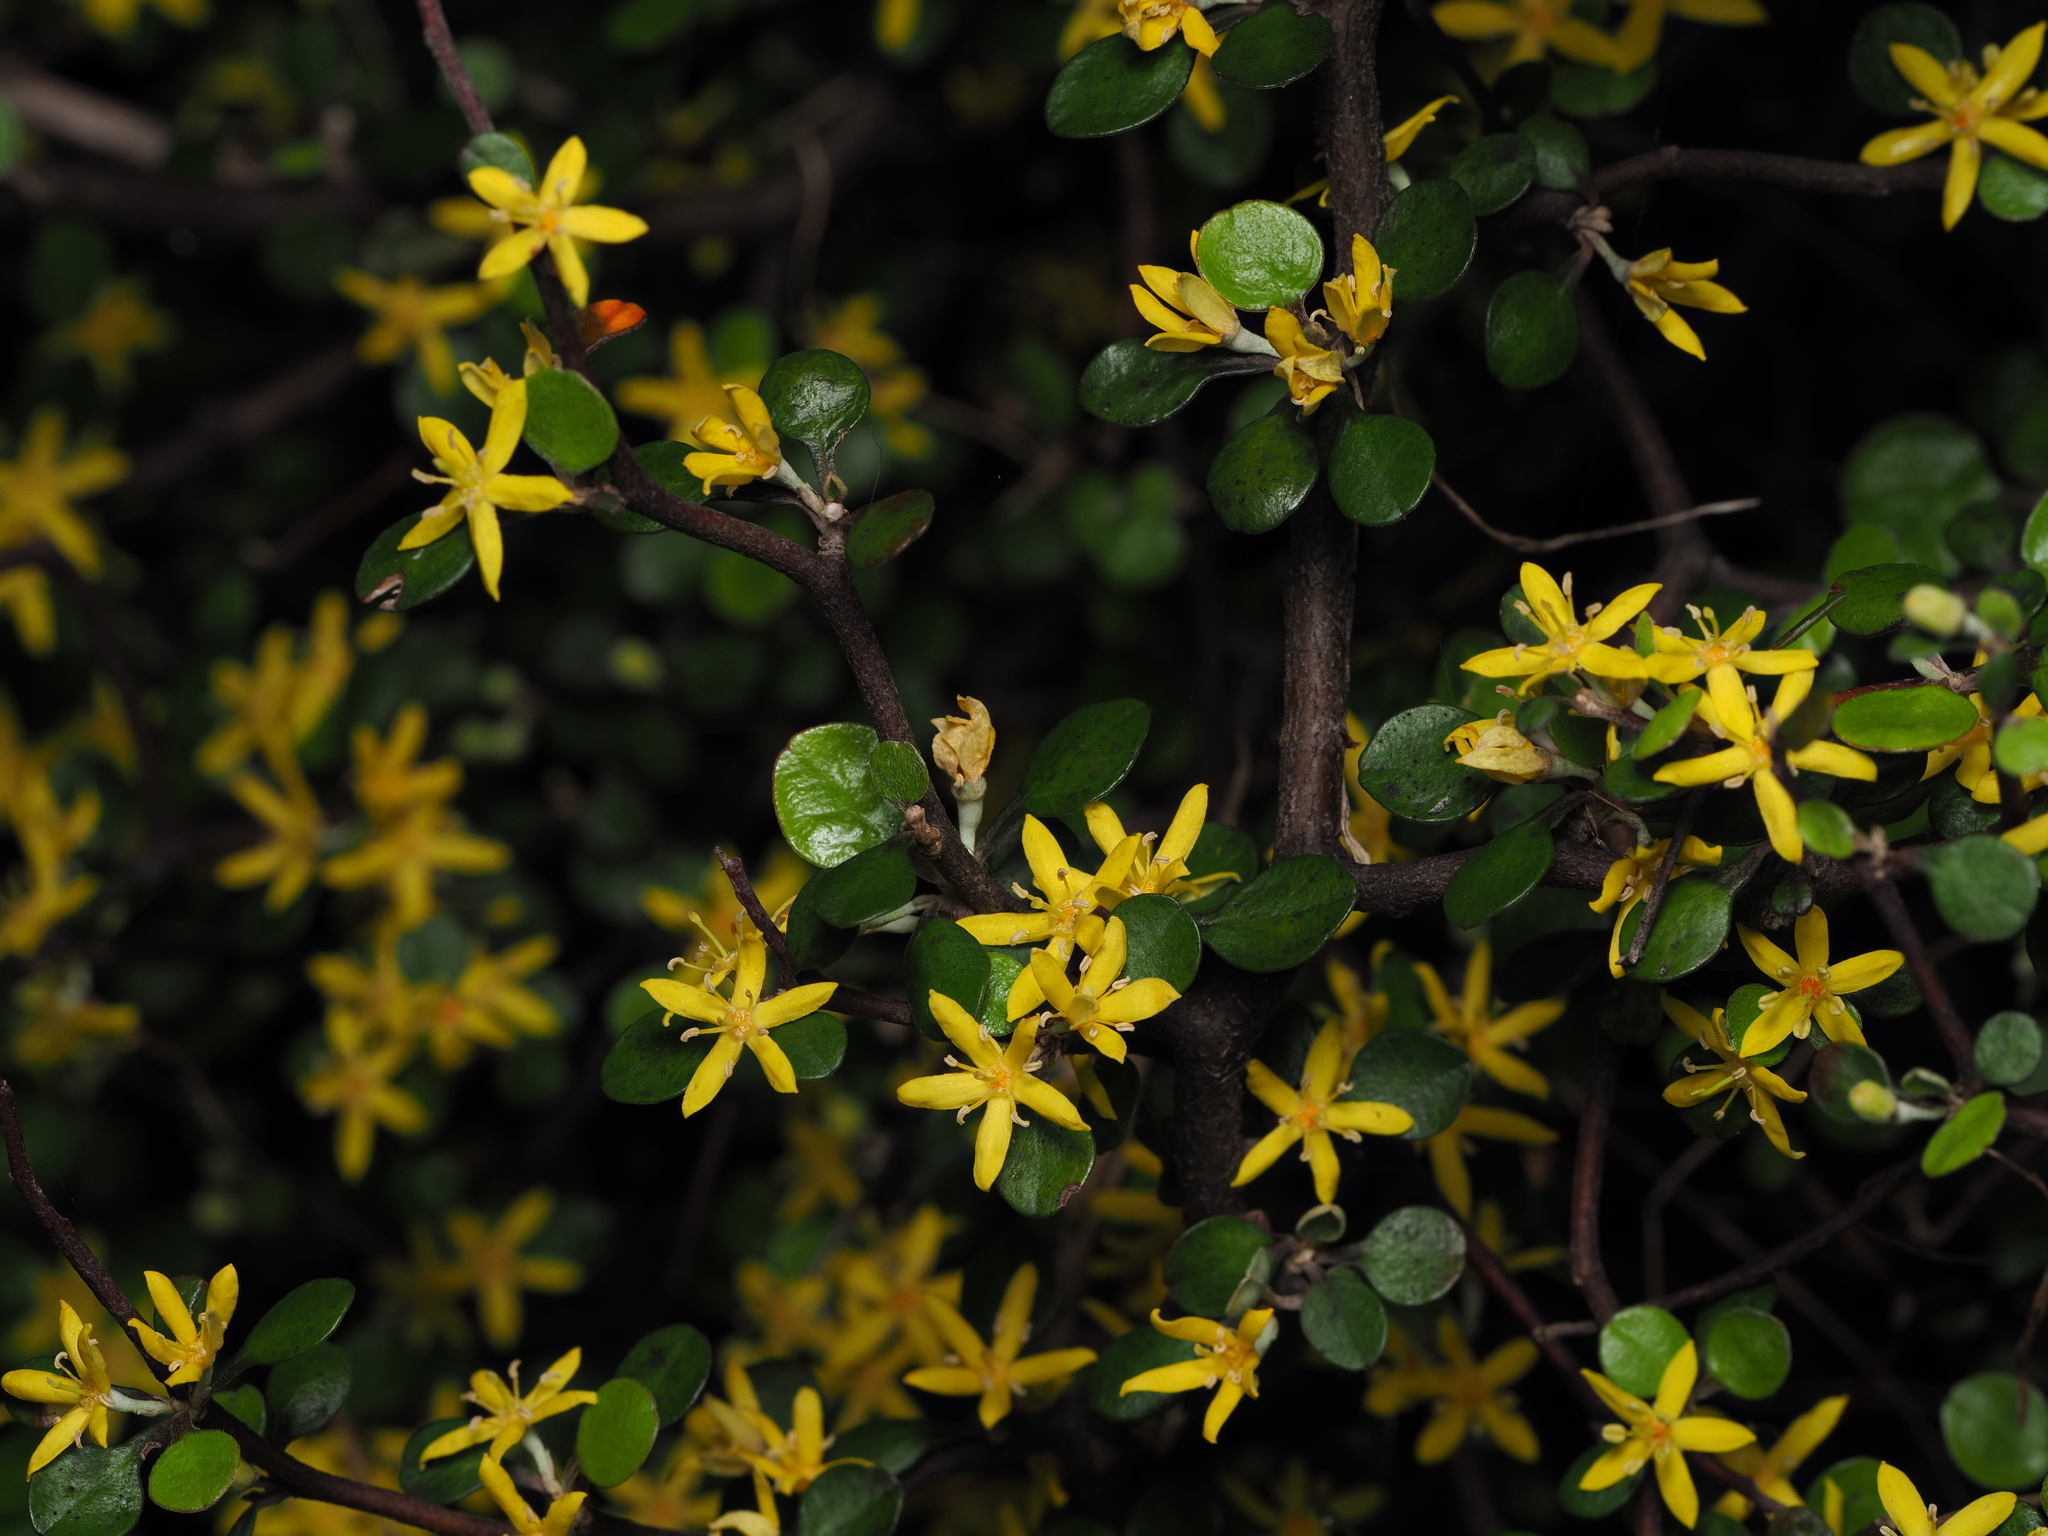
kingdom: Plantae
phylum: Tracheophyta
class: Magnoliopsida
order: Asterales
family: Argophyllaceae
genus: Corokia
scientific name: Corokia cotoneaster
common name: Wire nettingbush
